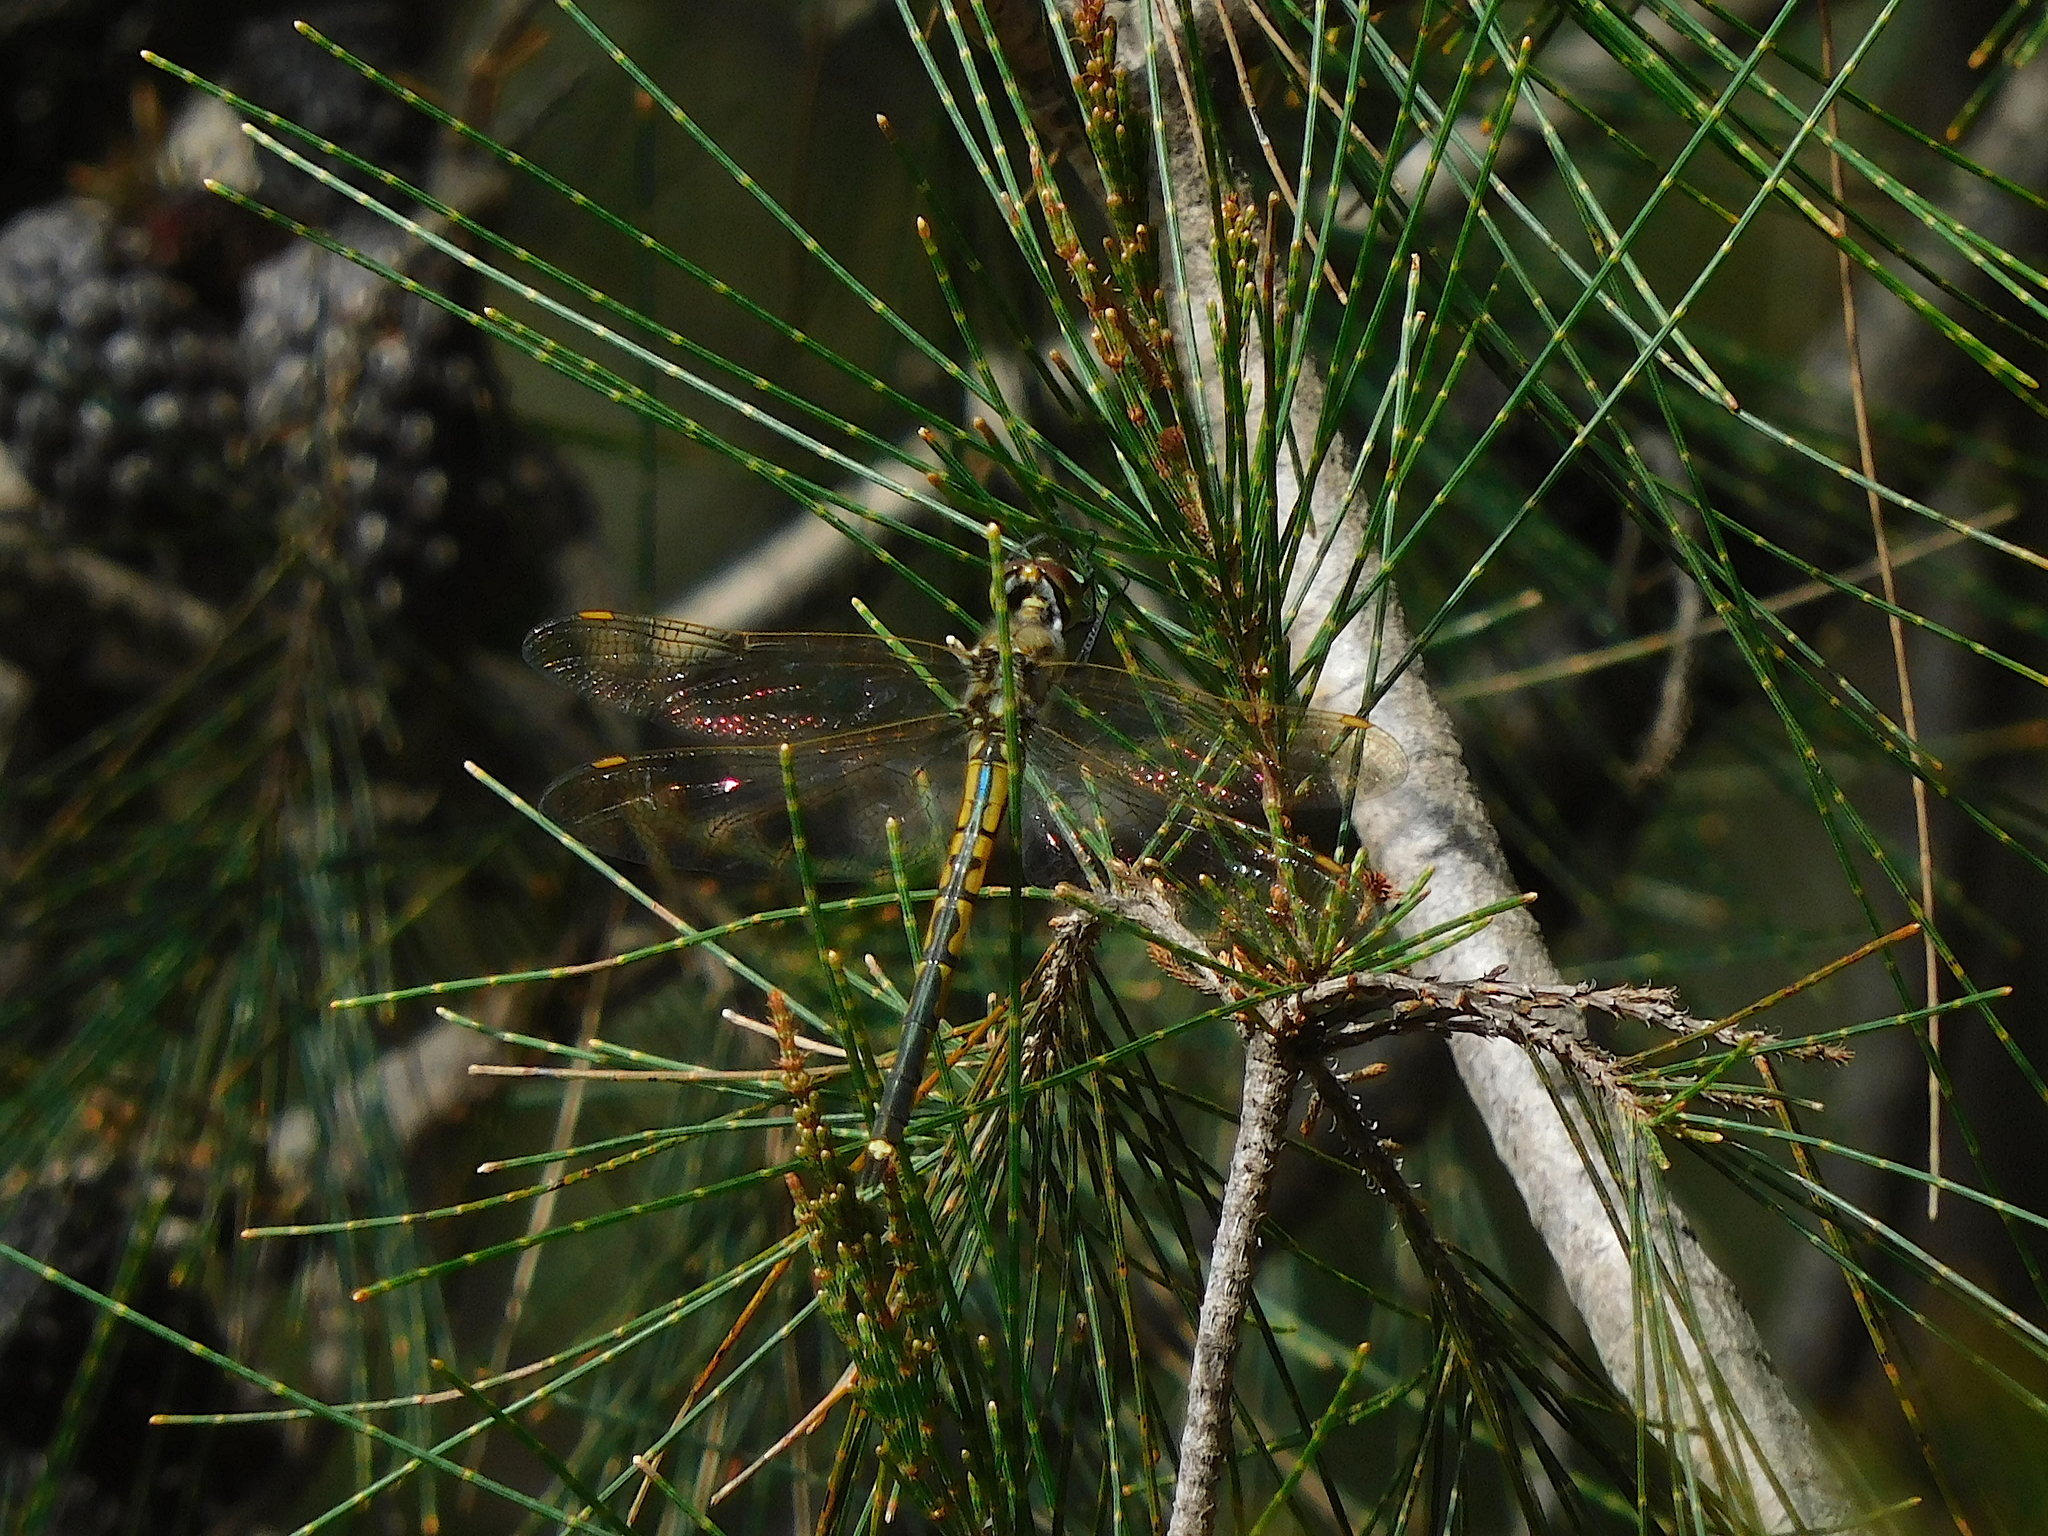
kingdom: Animalia
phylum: Arthropoda
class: Insecta
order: Odonata
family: Corduliidae
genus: Hemicordulia
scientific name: Hemicordulia tau
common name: Tau emerald
